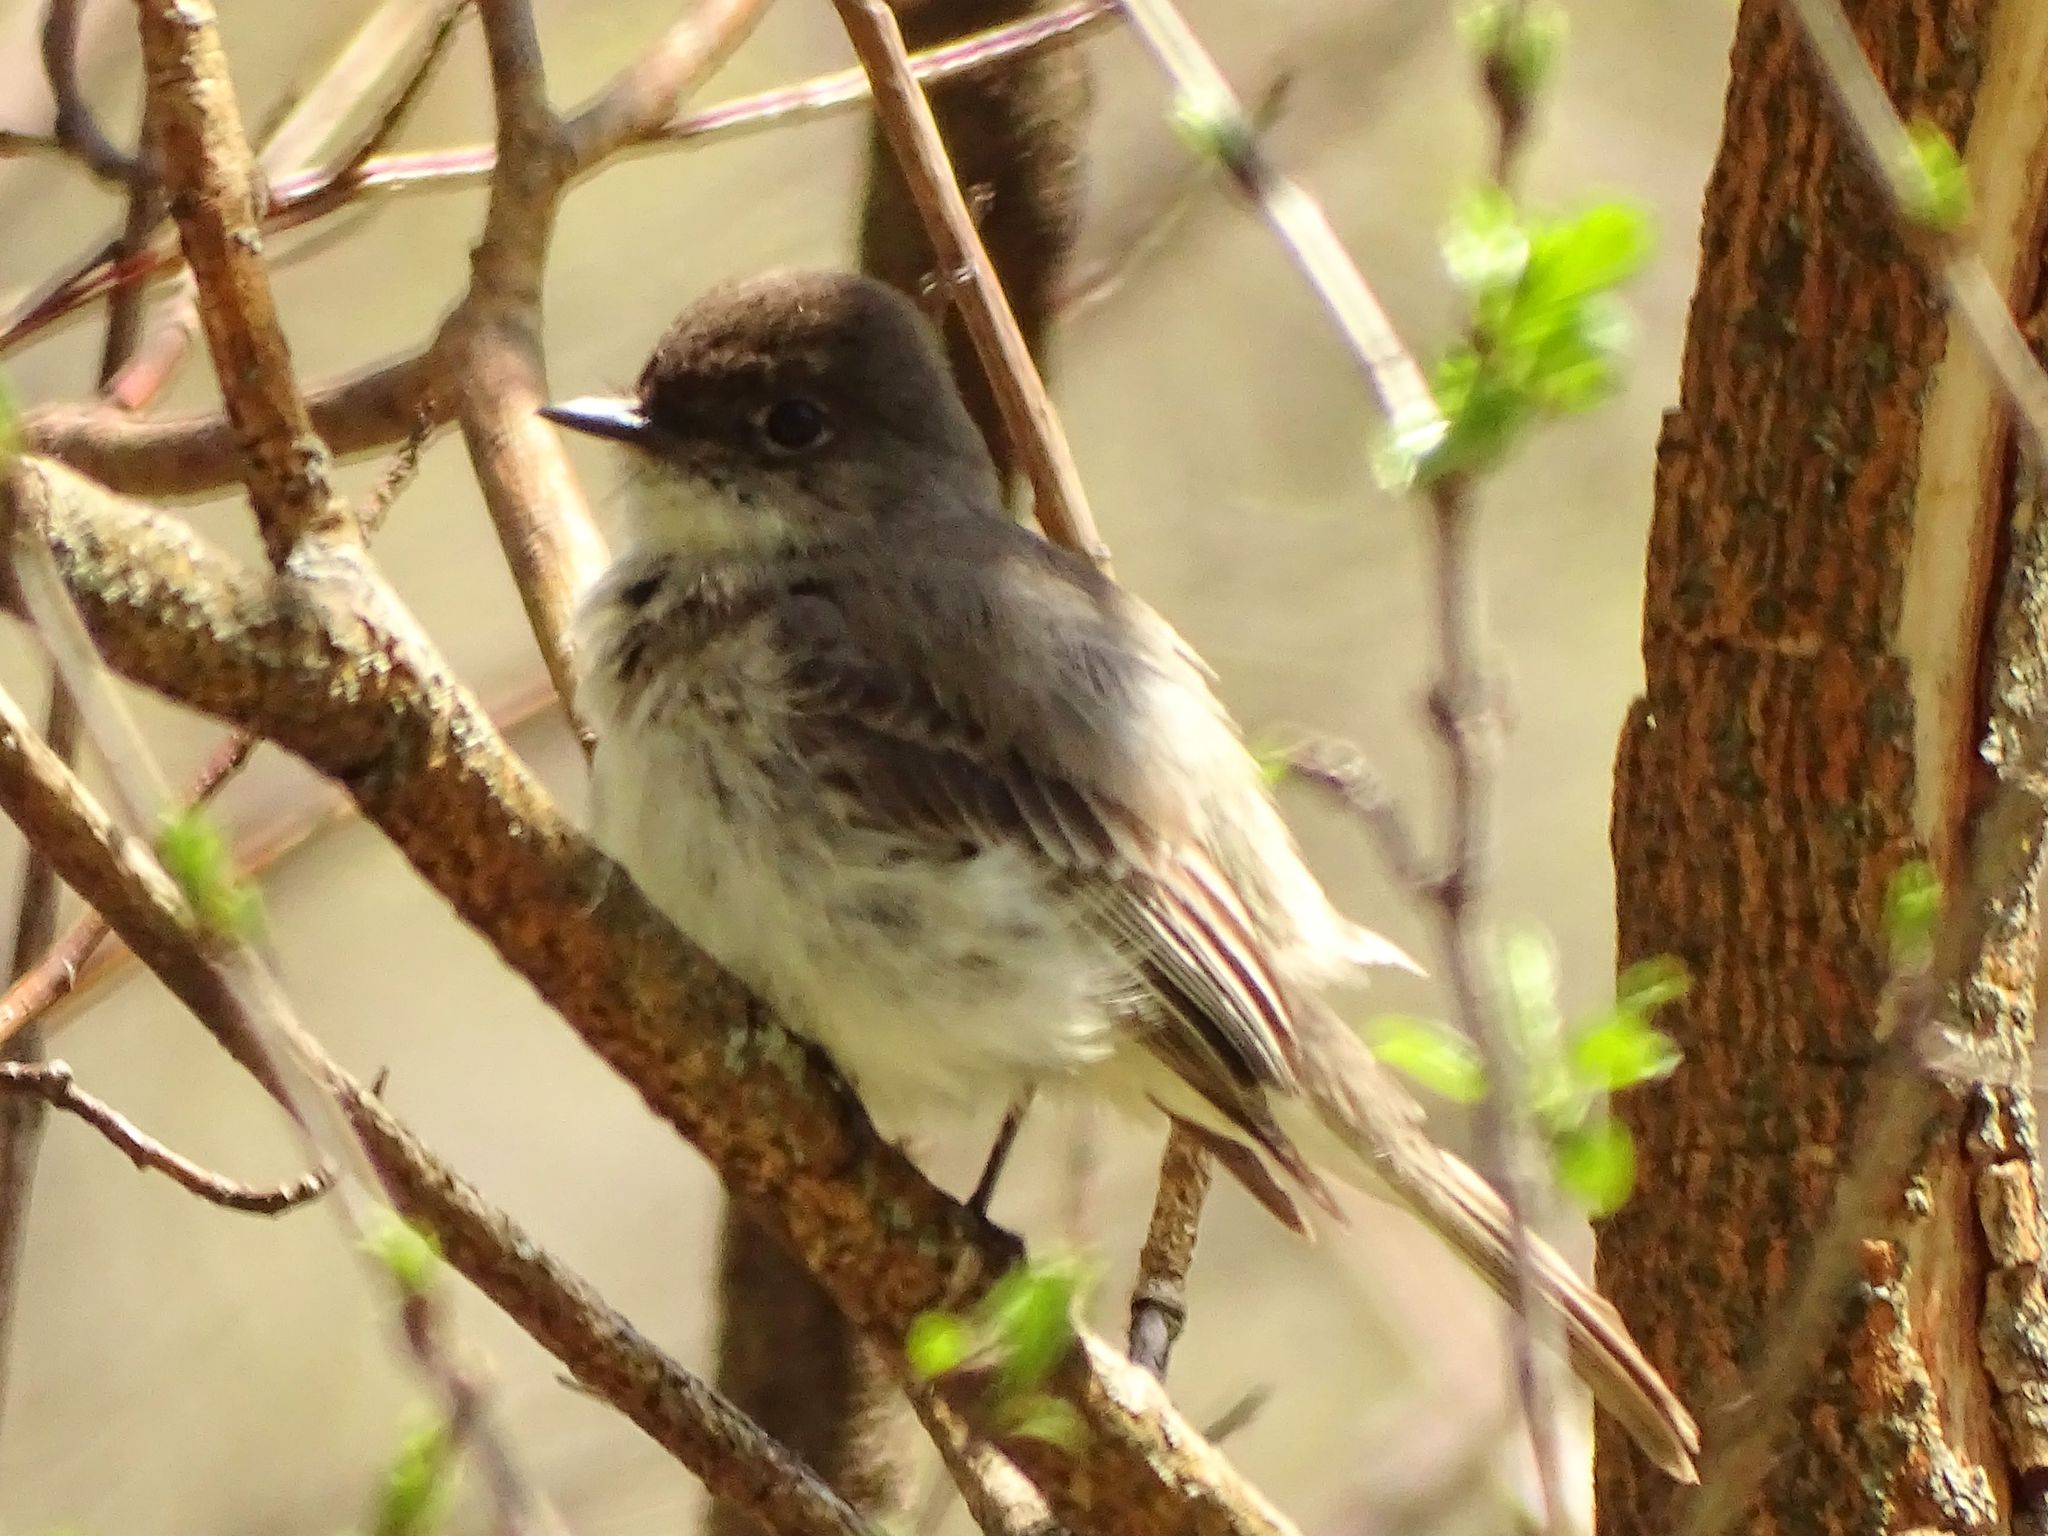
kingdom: Animalia
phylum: Chordata
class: Aves
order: Passeriformes
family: Tyrannidae
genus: Sayornis
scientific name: Sayornis phoebe
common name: Eastern phoebe
